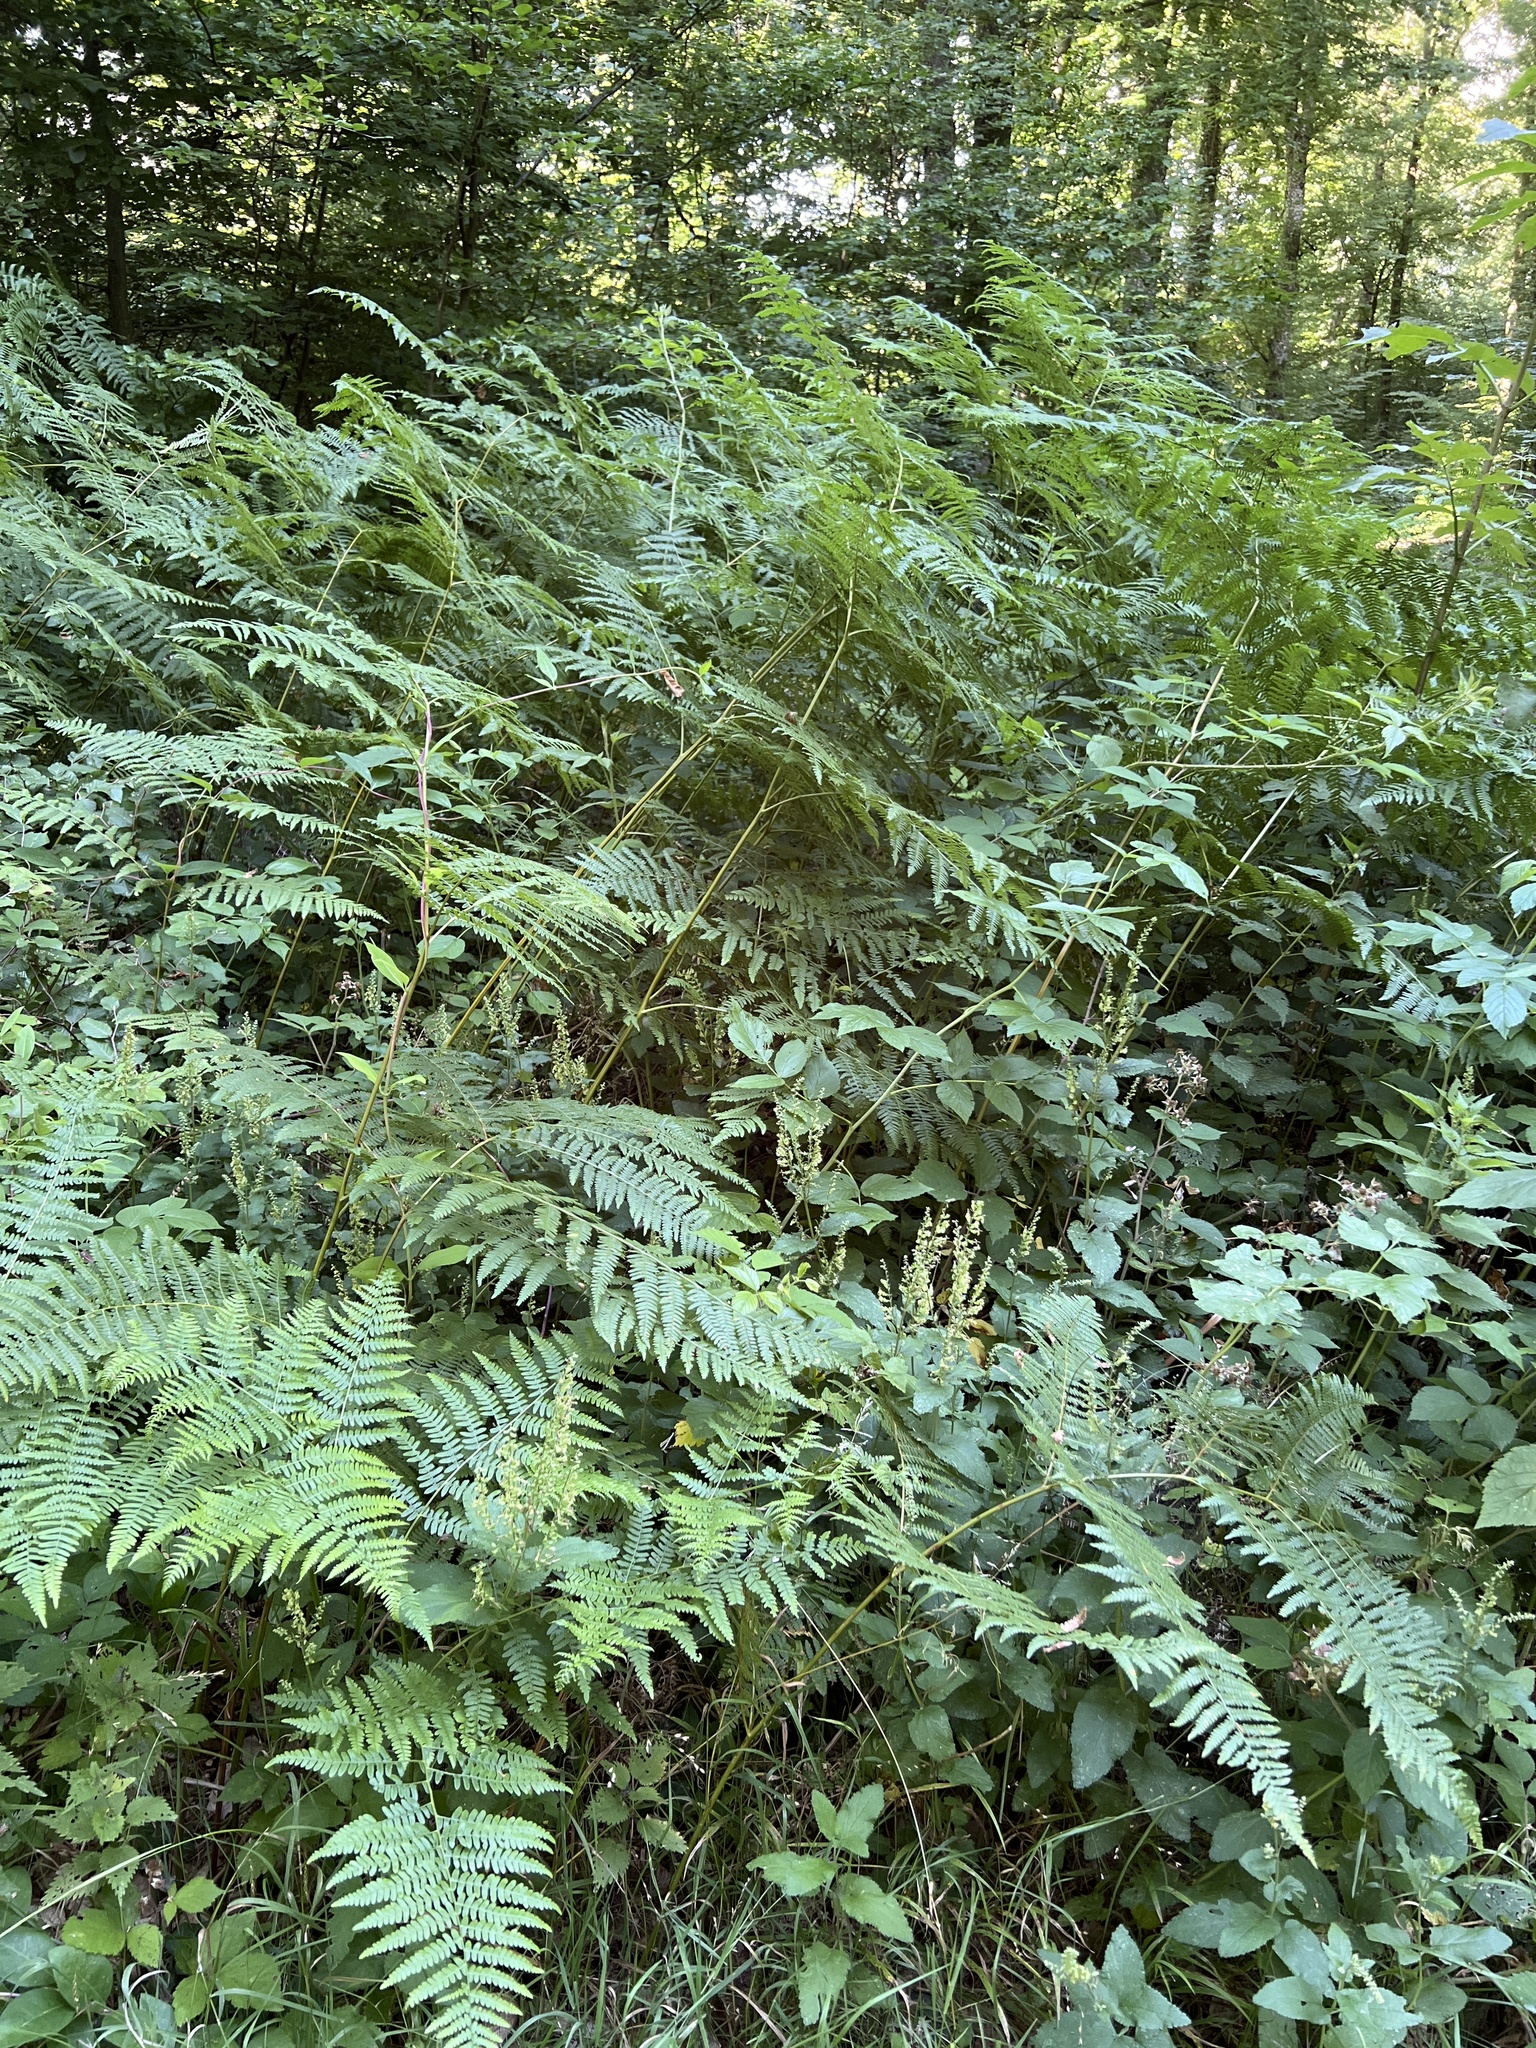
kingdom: Plantae
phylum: Tracheophyta
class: Polypodiopsida
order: Polypodiales
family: Dennstaedtiaceae
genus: Pteridium
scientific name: Pteridium aquilinum
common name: Bracken
